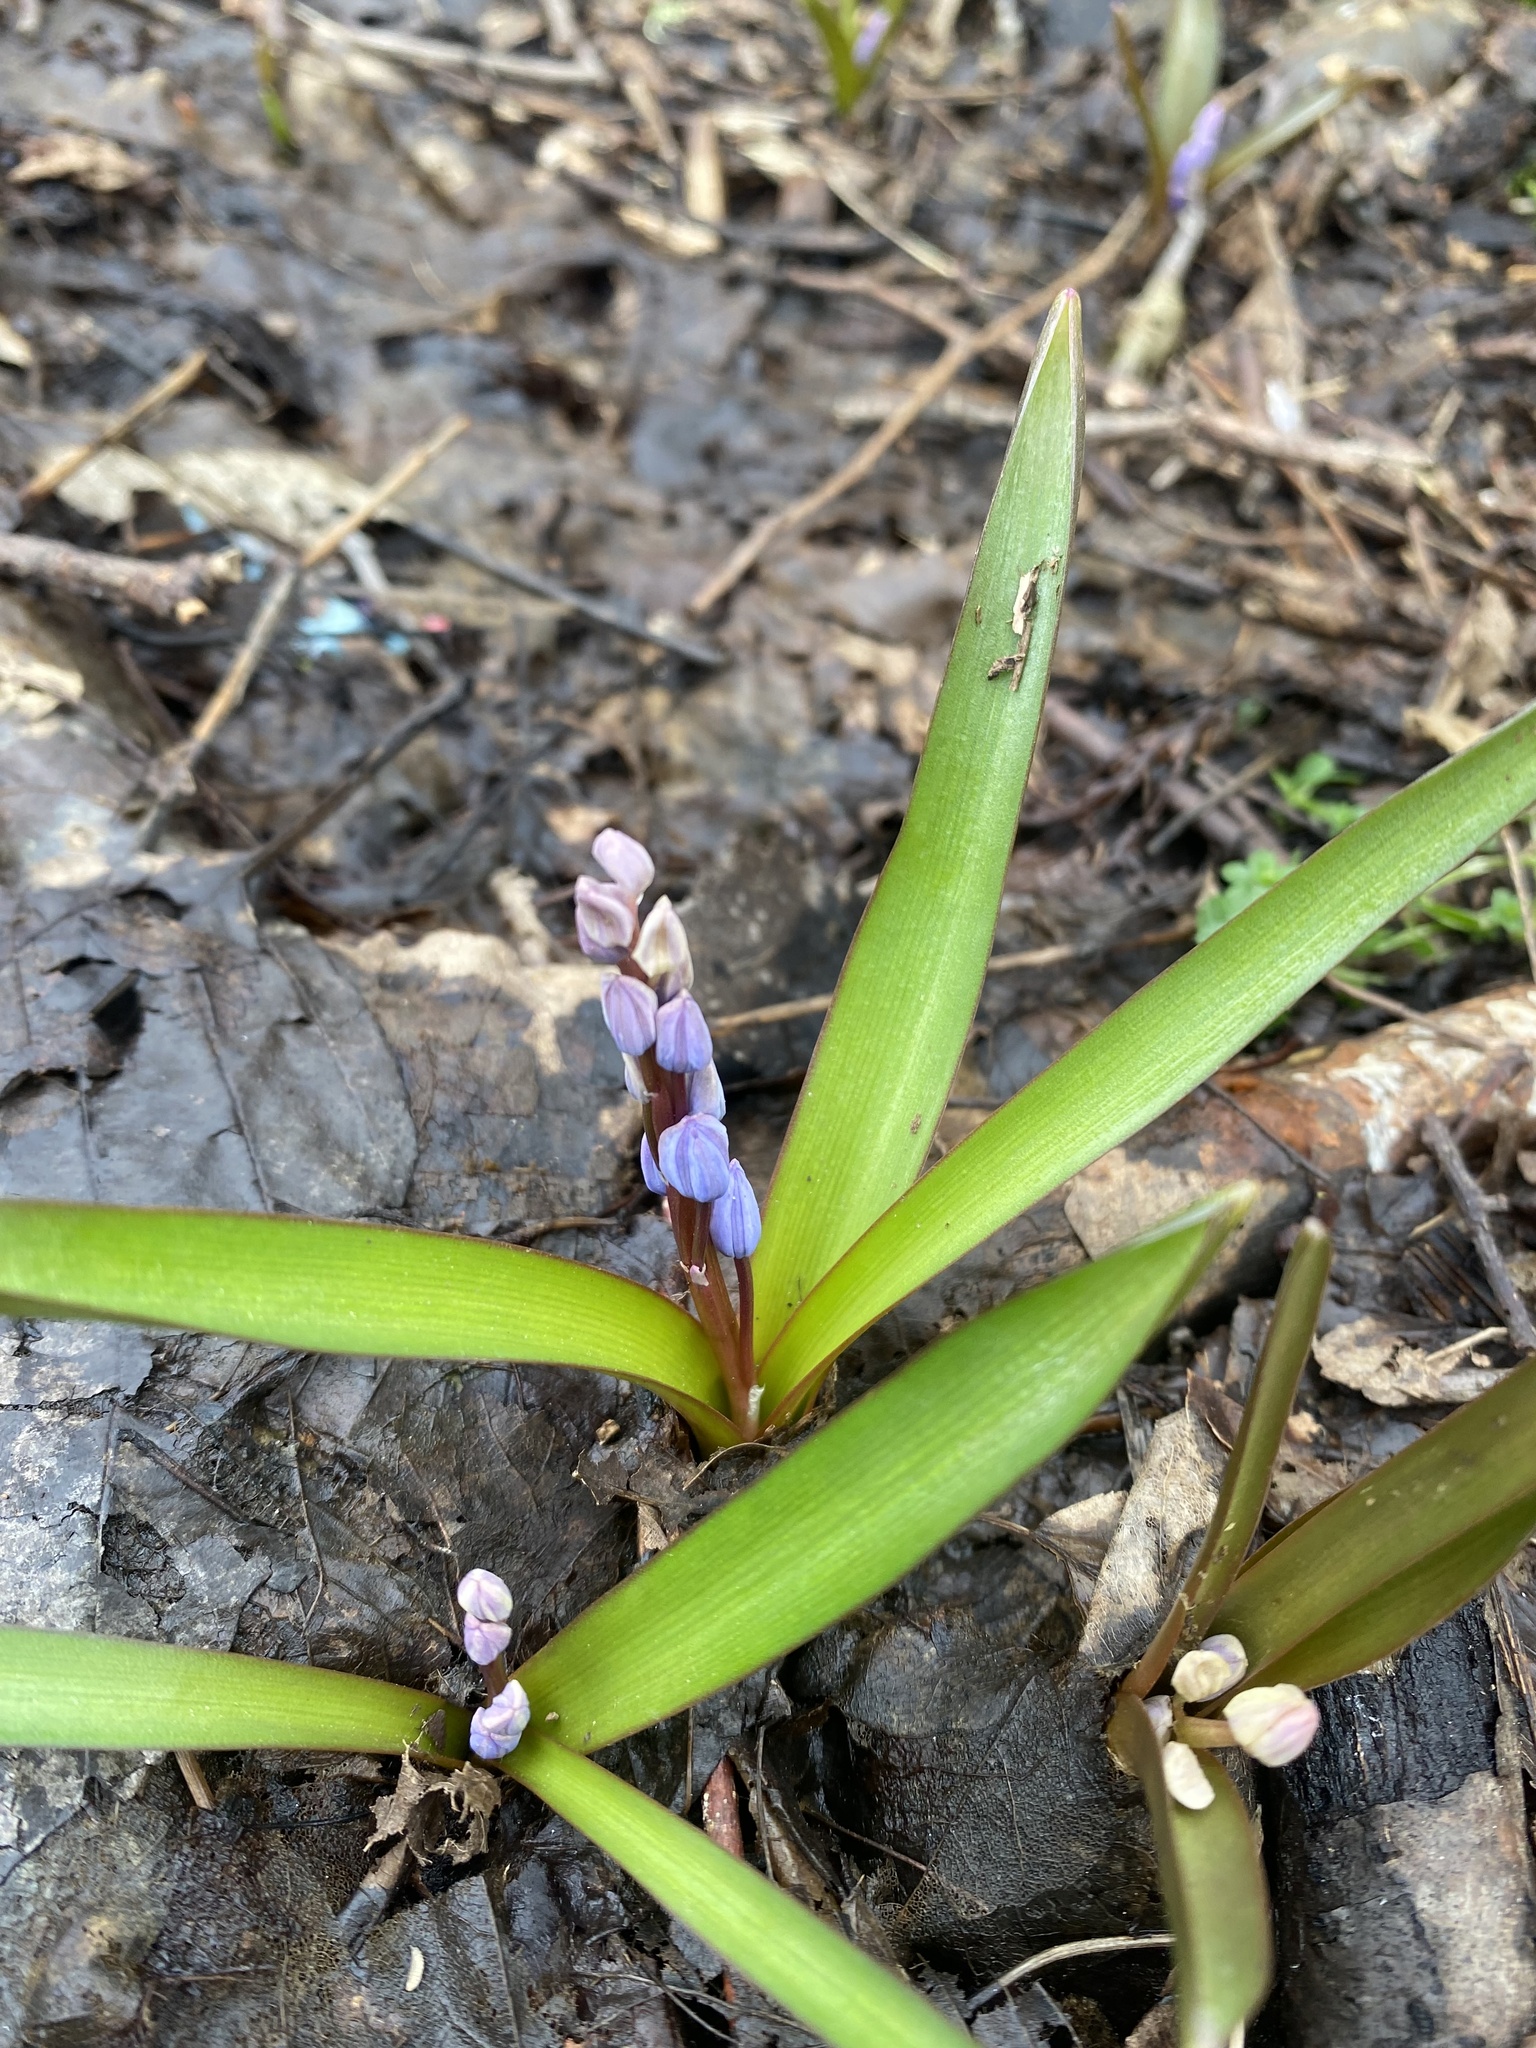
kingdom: Plantae
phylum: Tracheophyta
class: Liliopsida
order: Asparagales
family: Asparagaceae
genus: Scilla
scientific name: Scilla bifolia
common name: Alpine squill
